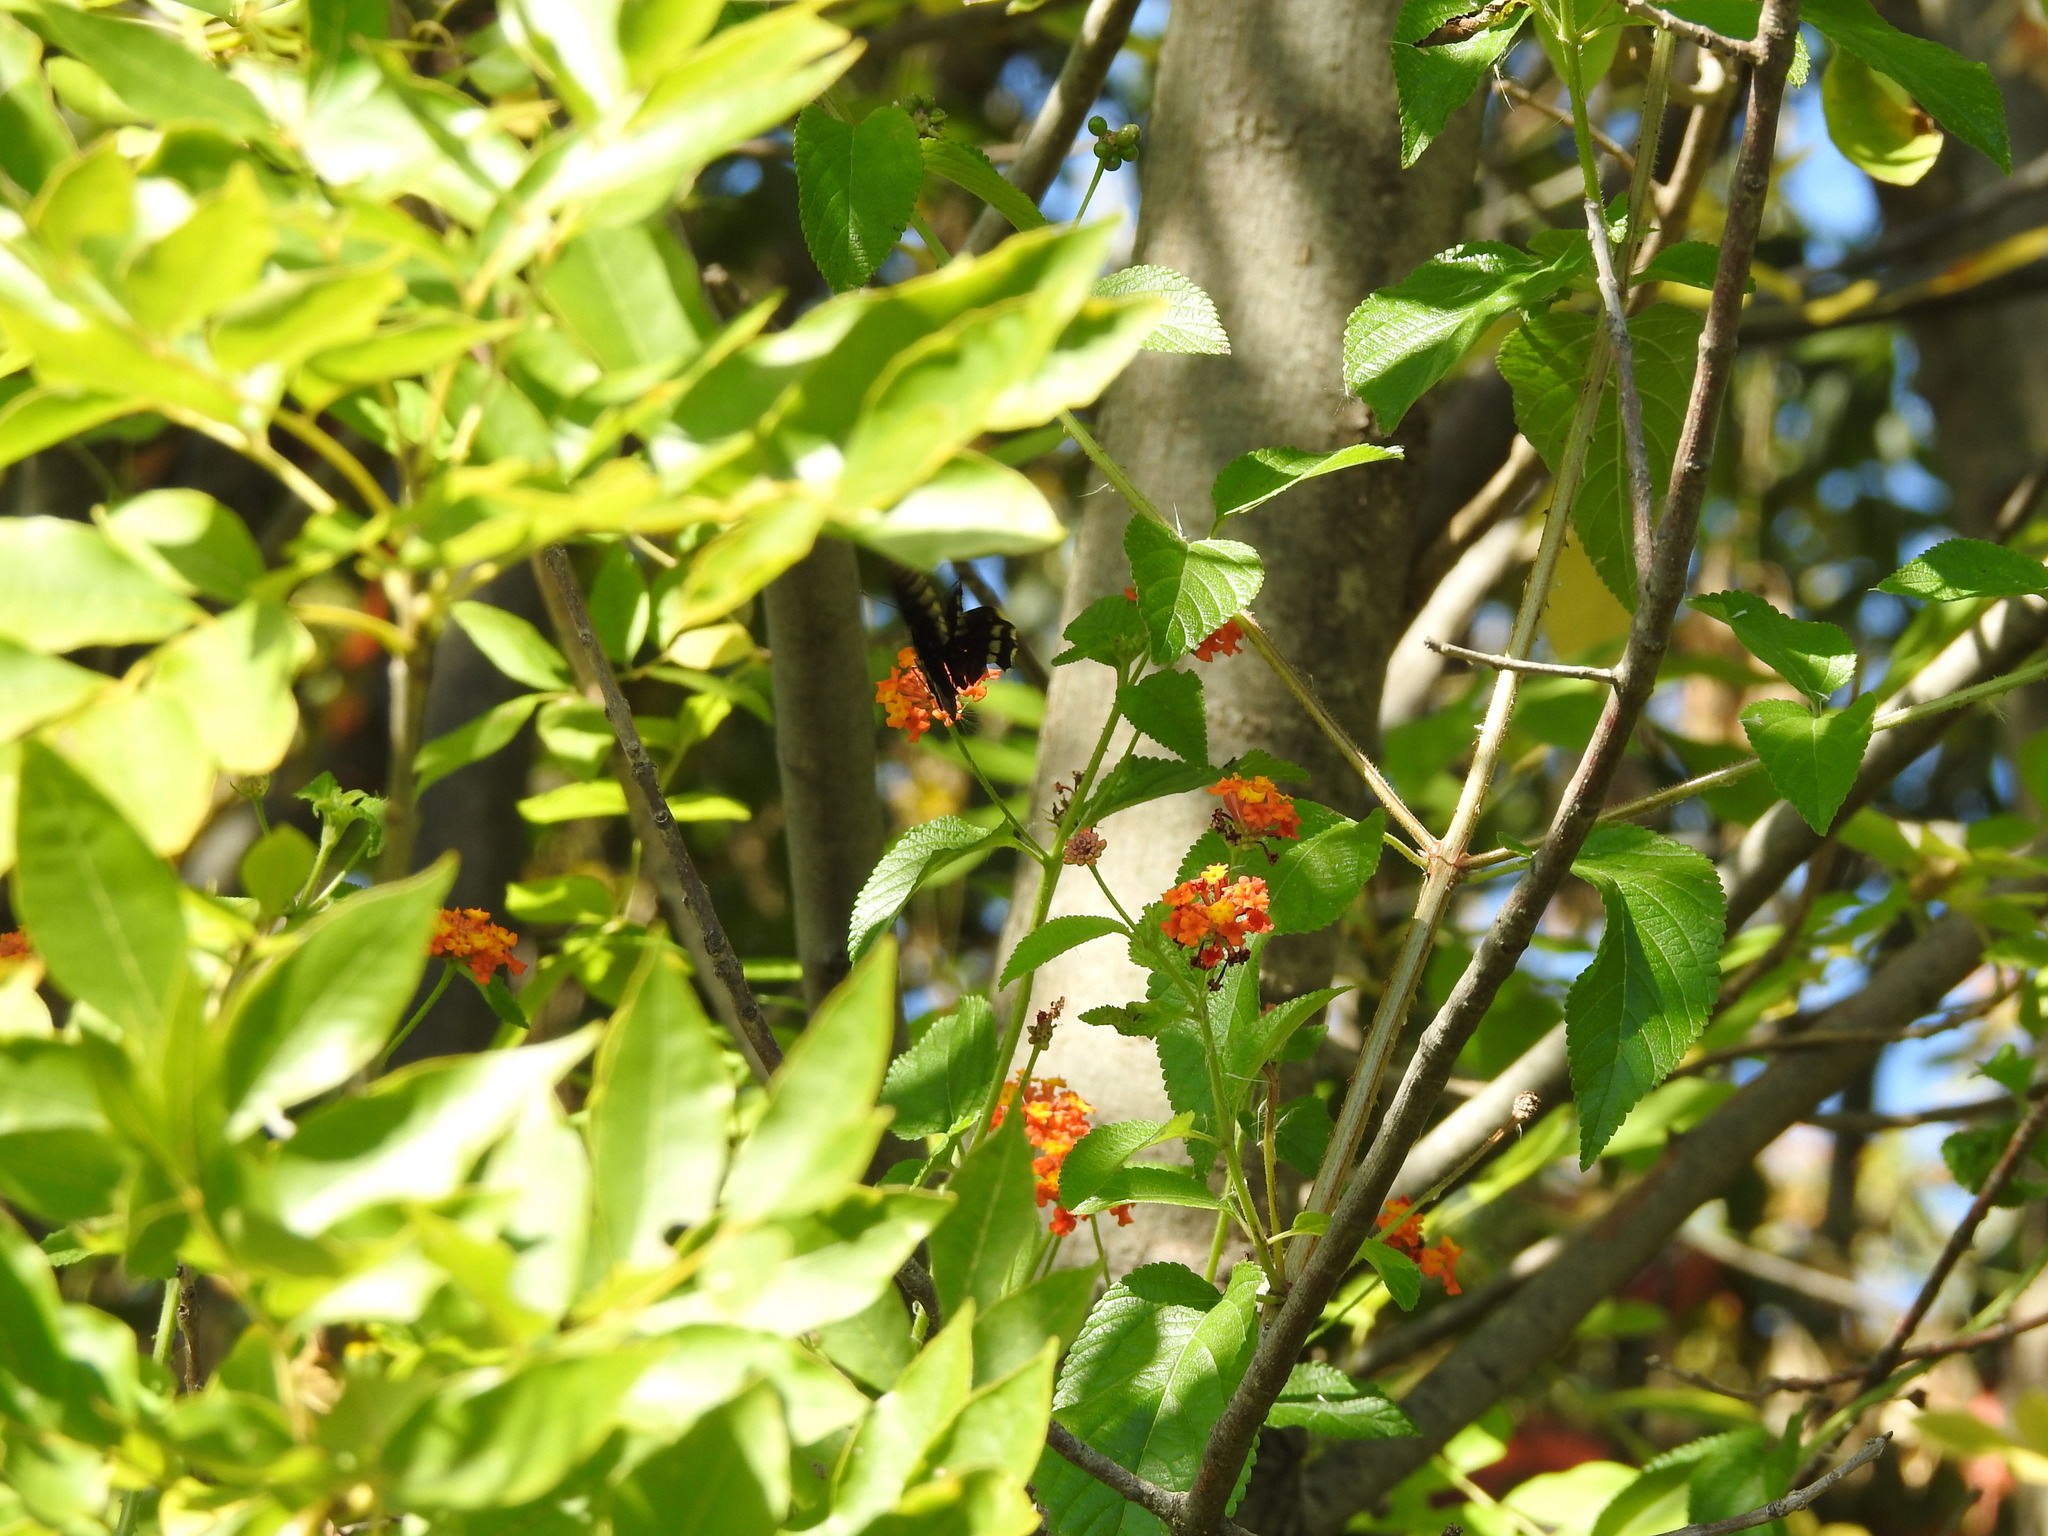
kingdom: Animalia
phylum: Arthropoda
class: Insecta
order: Lepidoptera
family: Papilionidae
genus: Battus
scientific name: Battus polydamas
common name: Polydamas swallowtail
